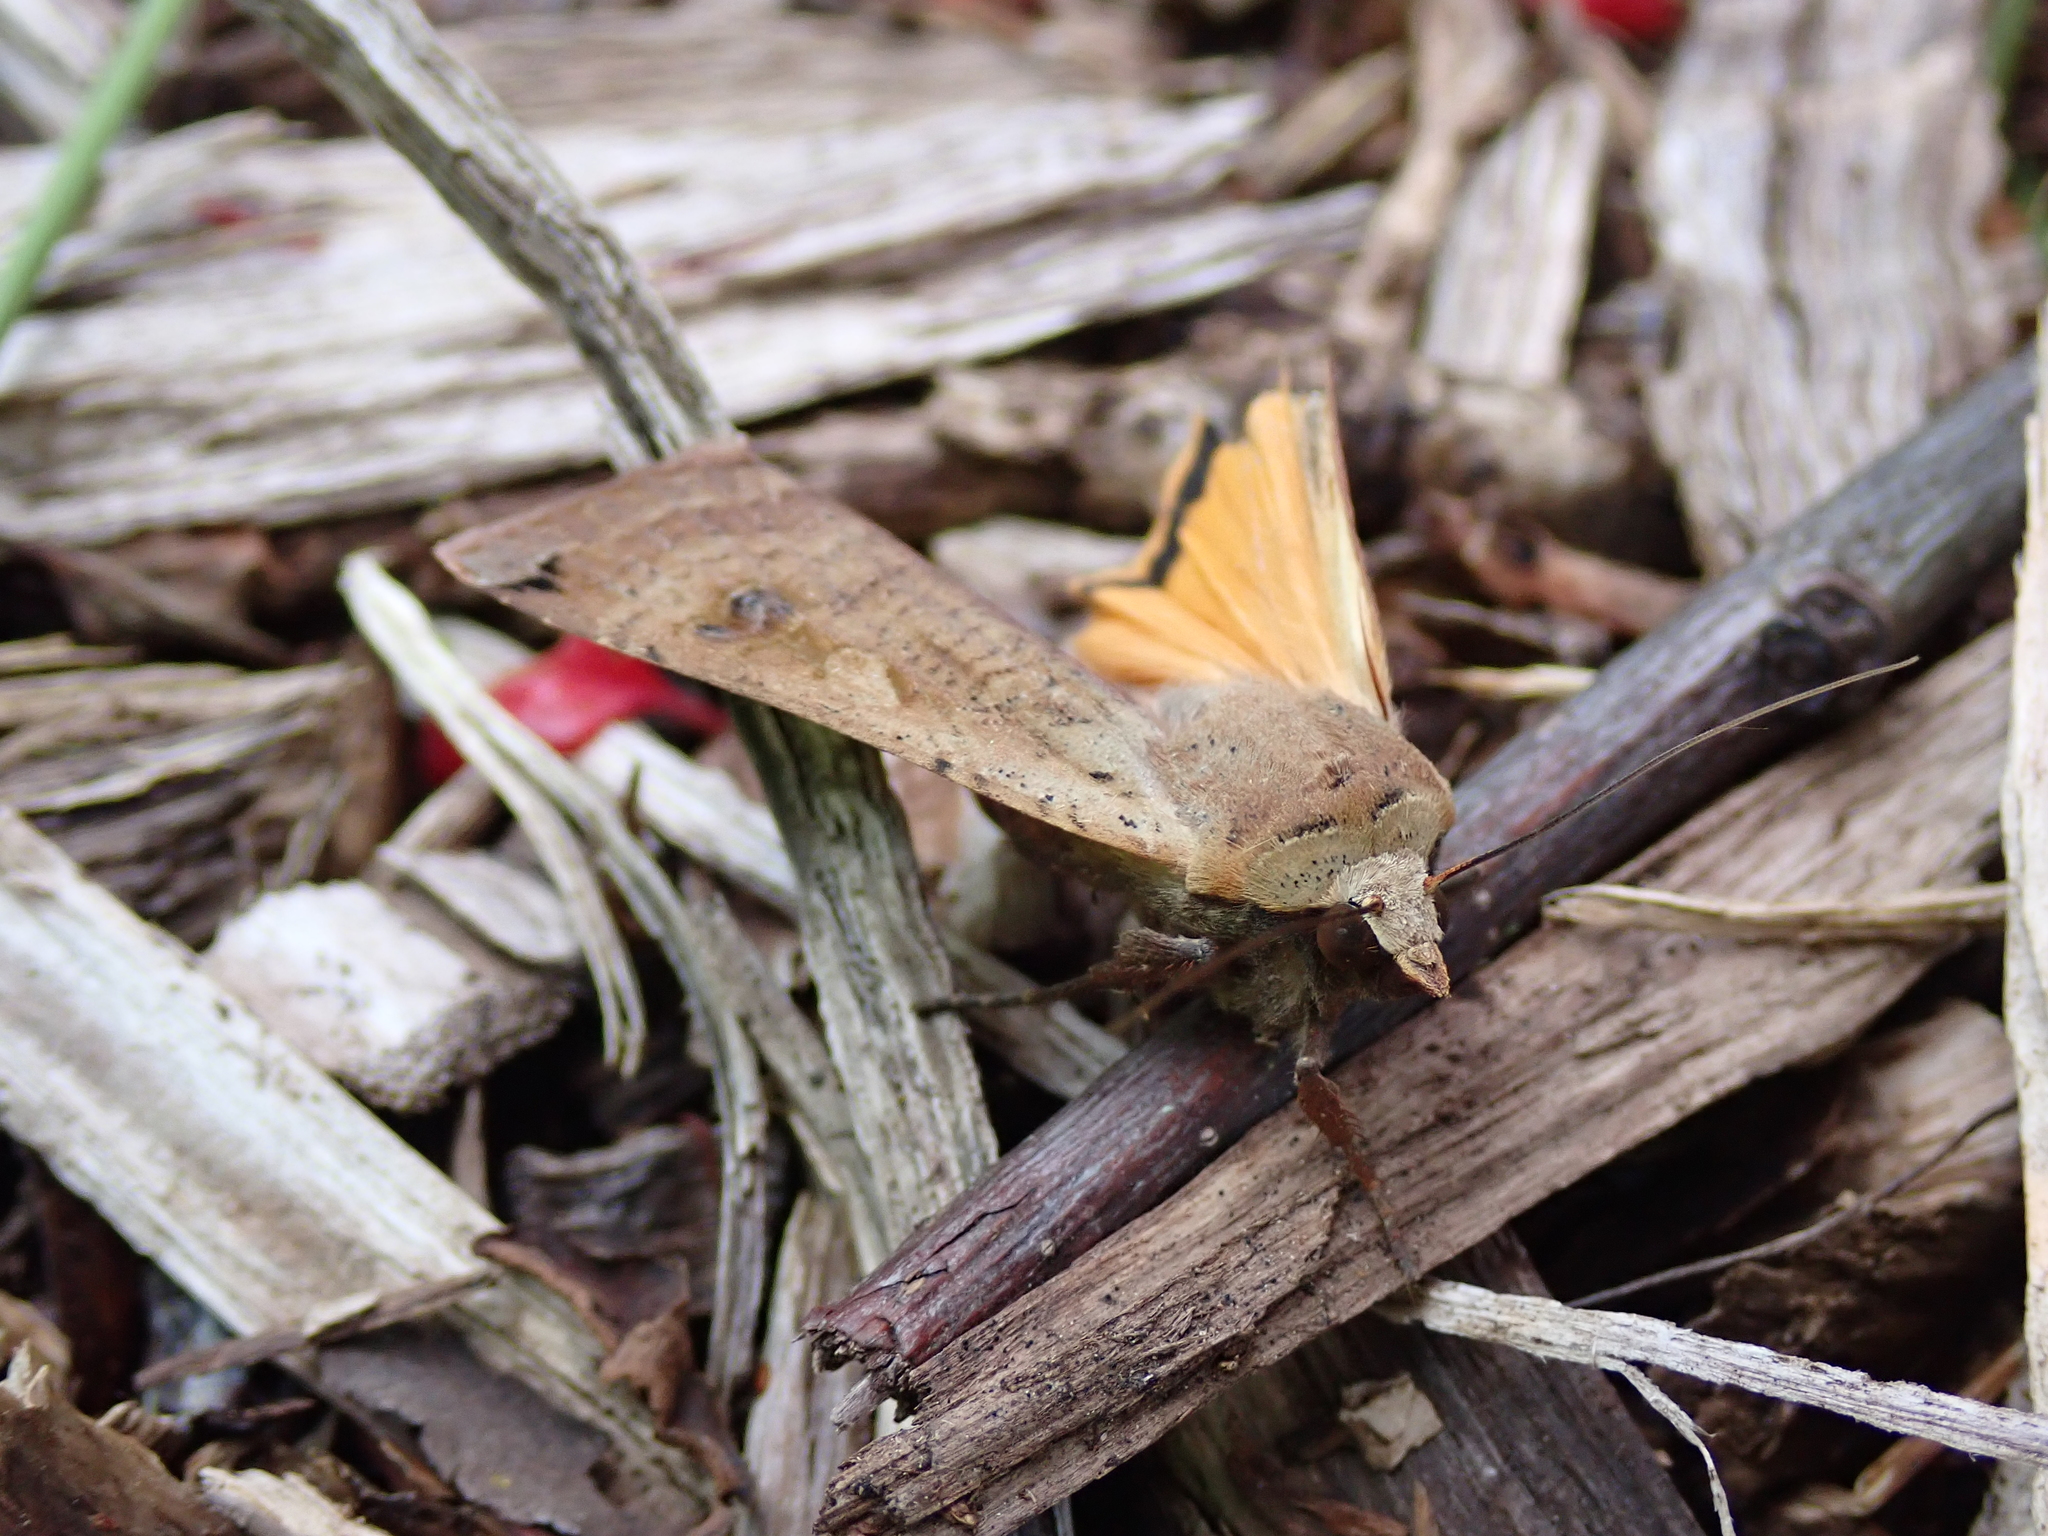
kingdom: Animalia
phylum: Arthropoda
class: Insecta
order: Lepidoptera
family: Noctuidae
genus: Noctua
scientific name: Noctua pronuba
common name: Large yellow underwing
